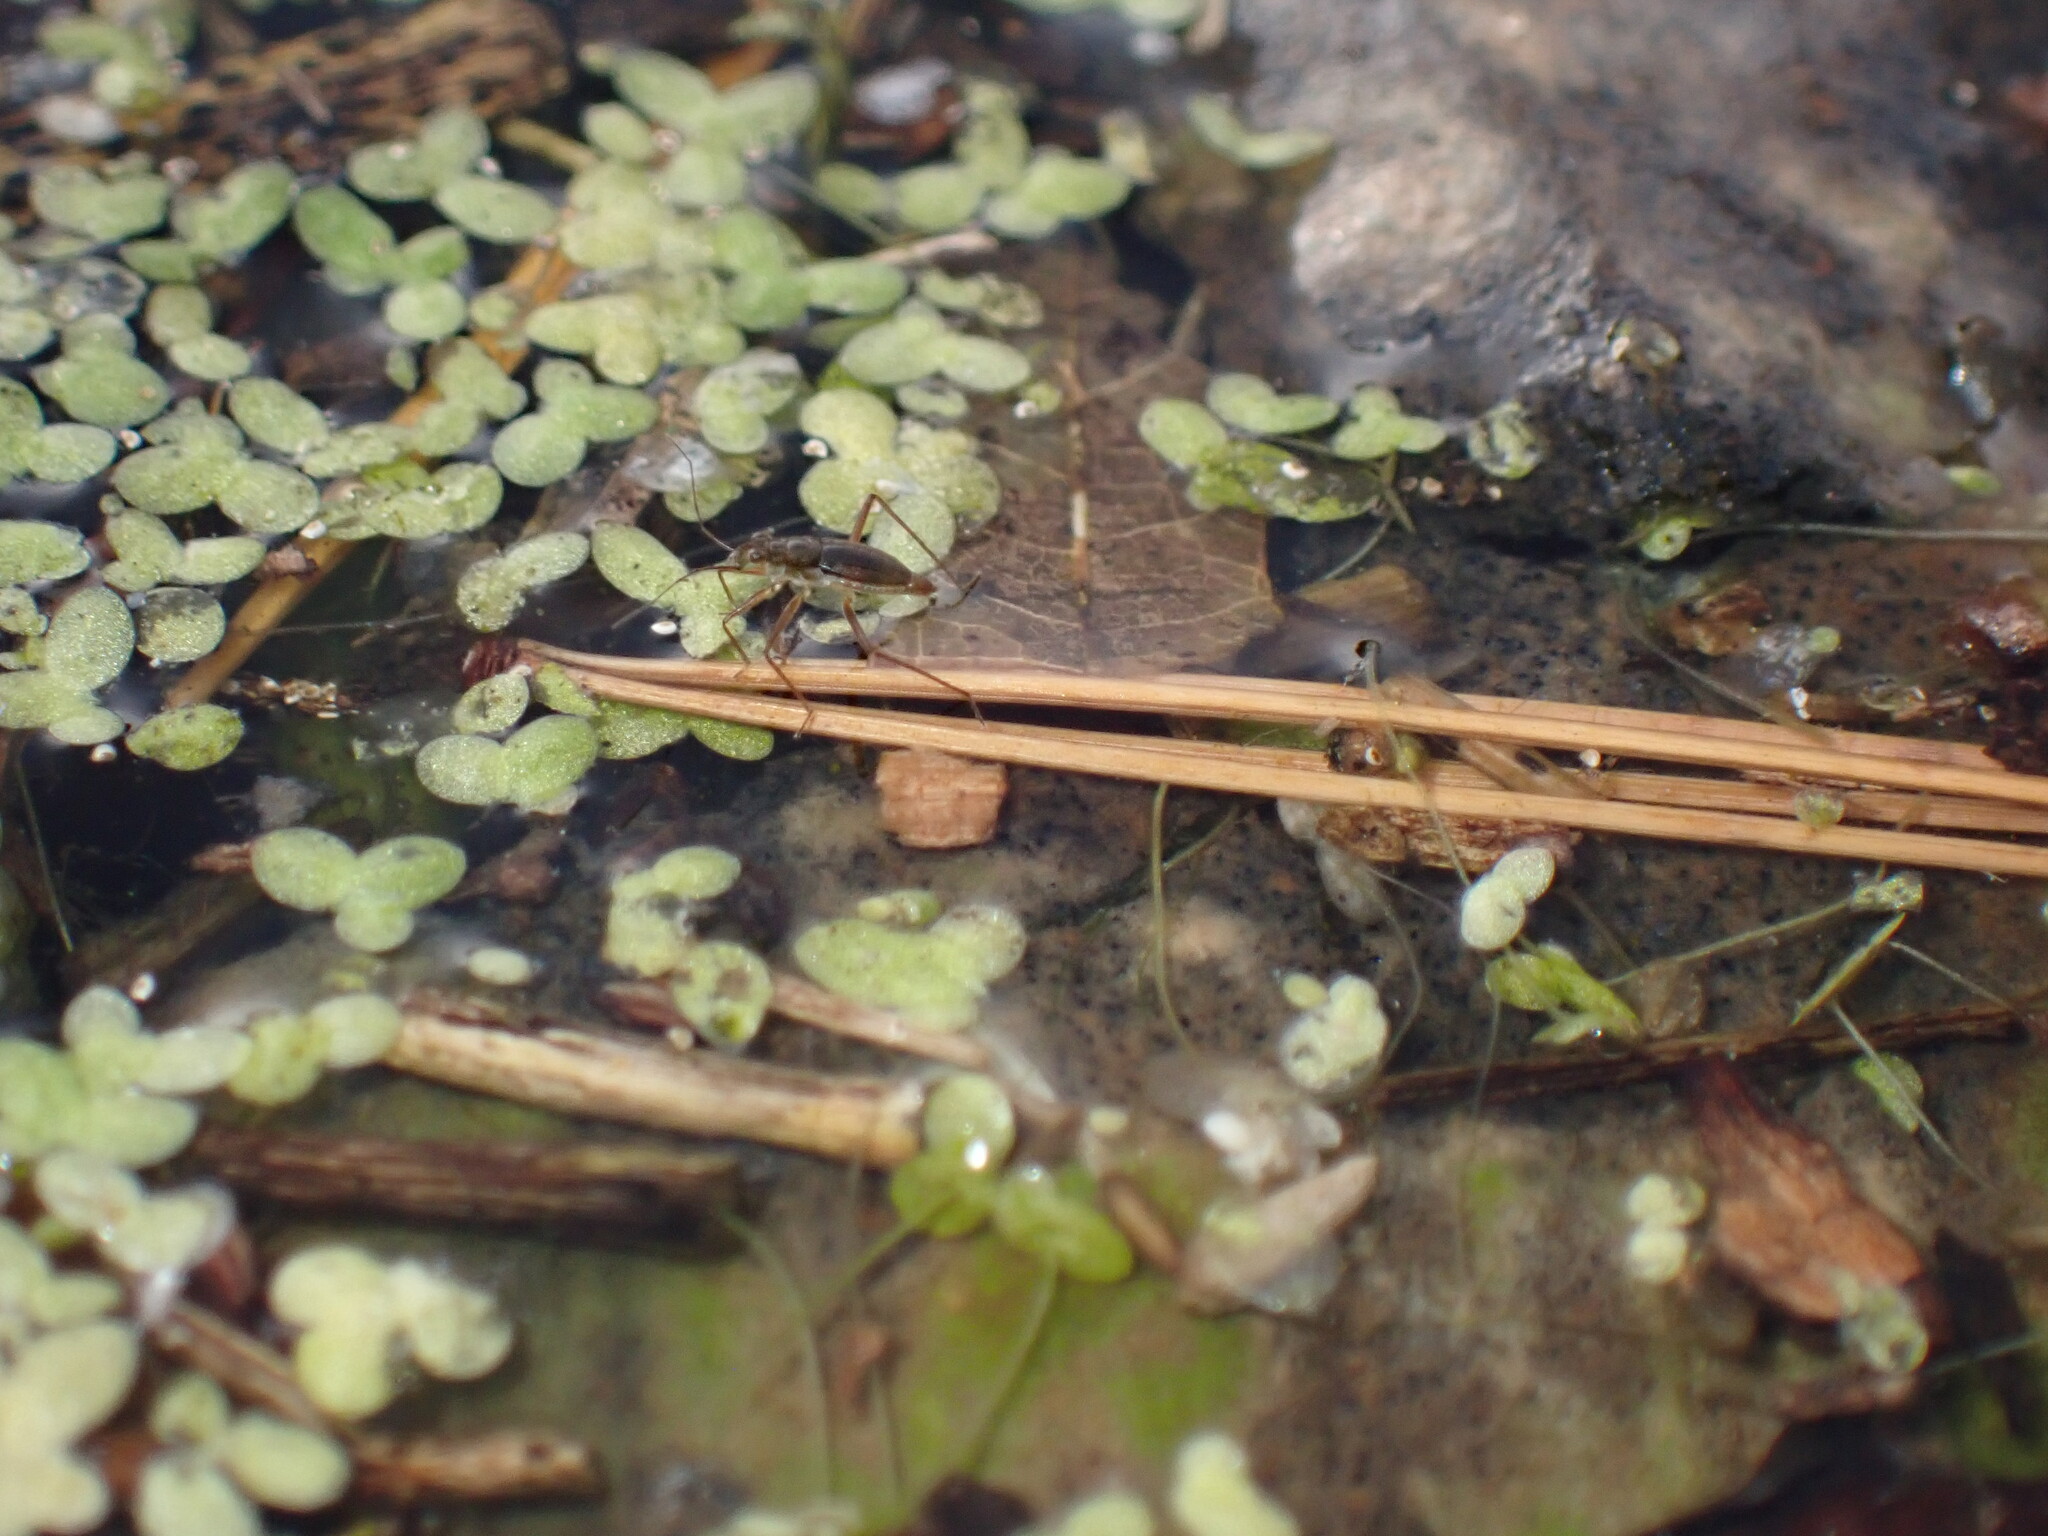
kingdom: Animalia
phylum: Arthropoda
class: Insecta
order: Hemiptera
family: Mesoveliidae
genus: Mesovelia
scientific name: Mesovelia mulsanti
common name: Water treaders
